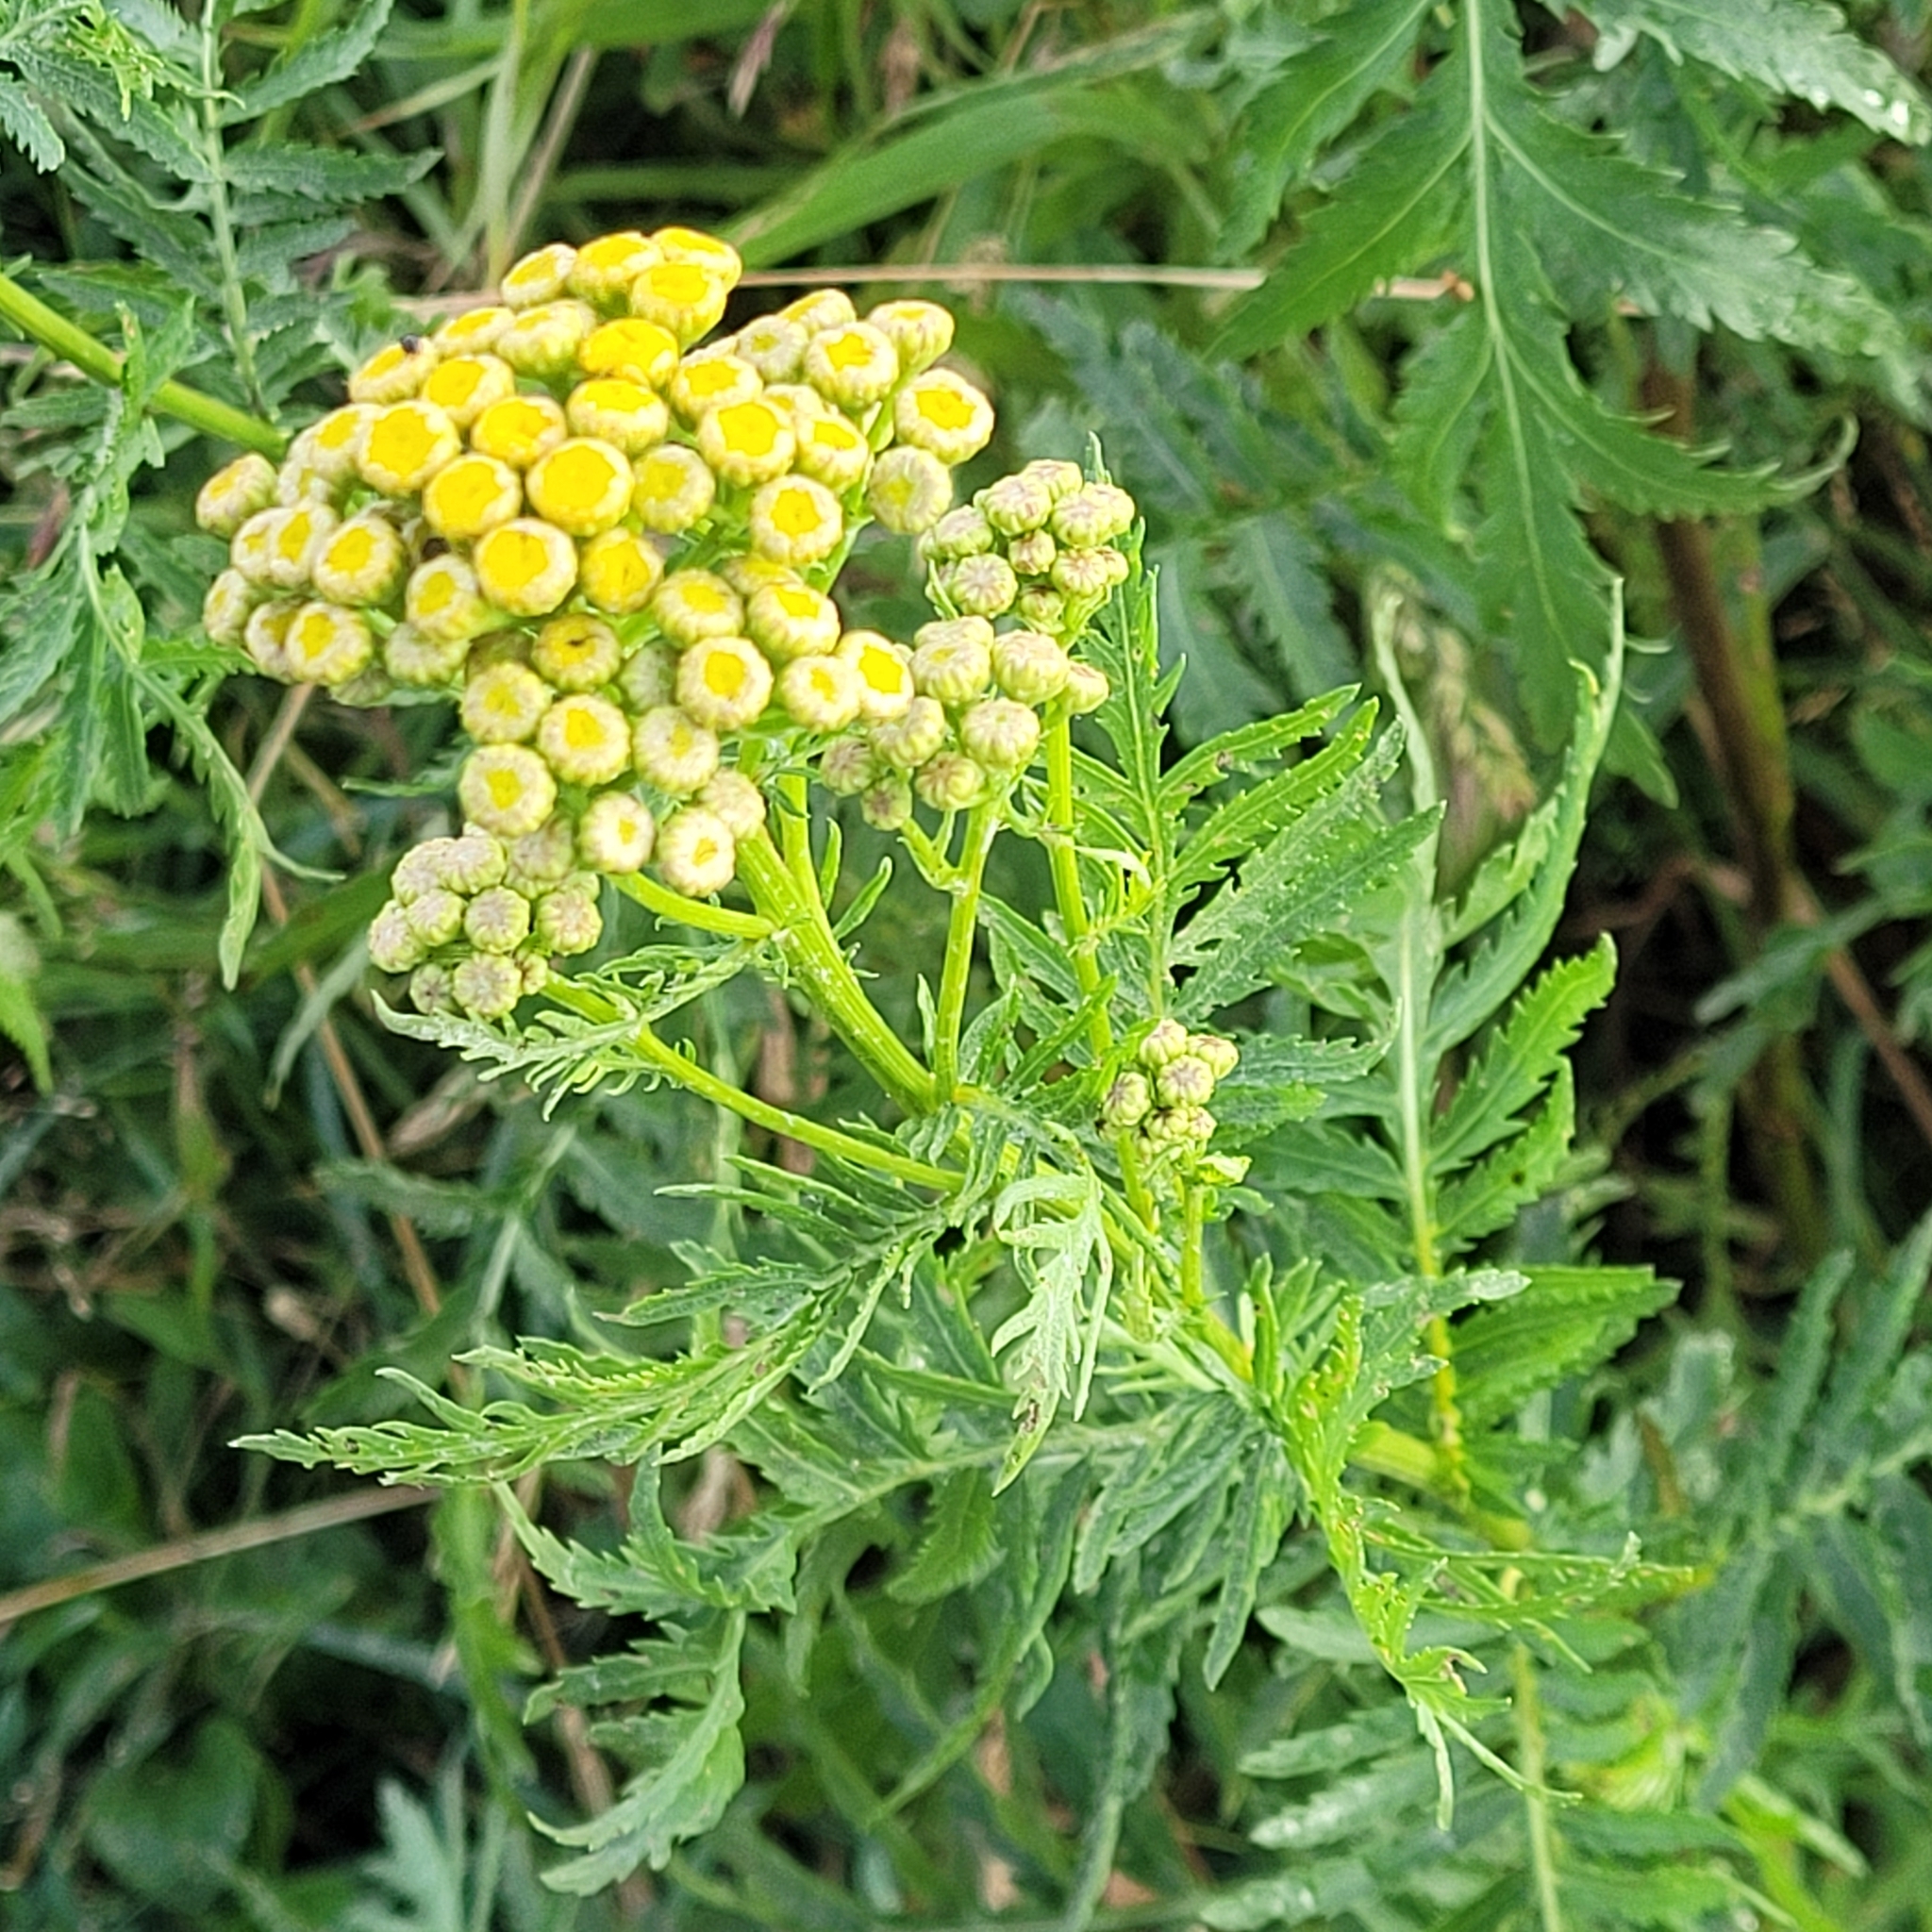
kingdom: Plantae
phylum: Tracheophyta
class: Magnoliopsida
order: Asterales
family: Asteraceae
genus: Tanacetum
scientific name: Tanacetum vulgare
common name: Common tansy
